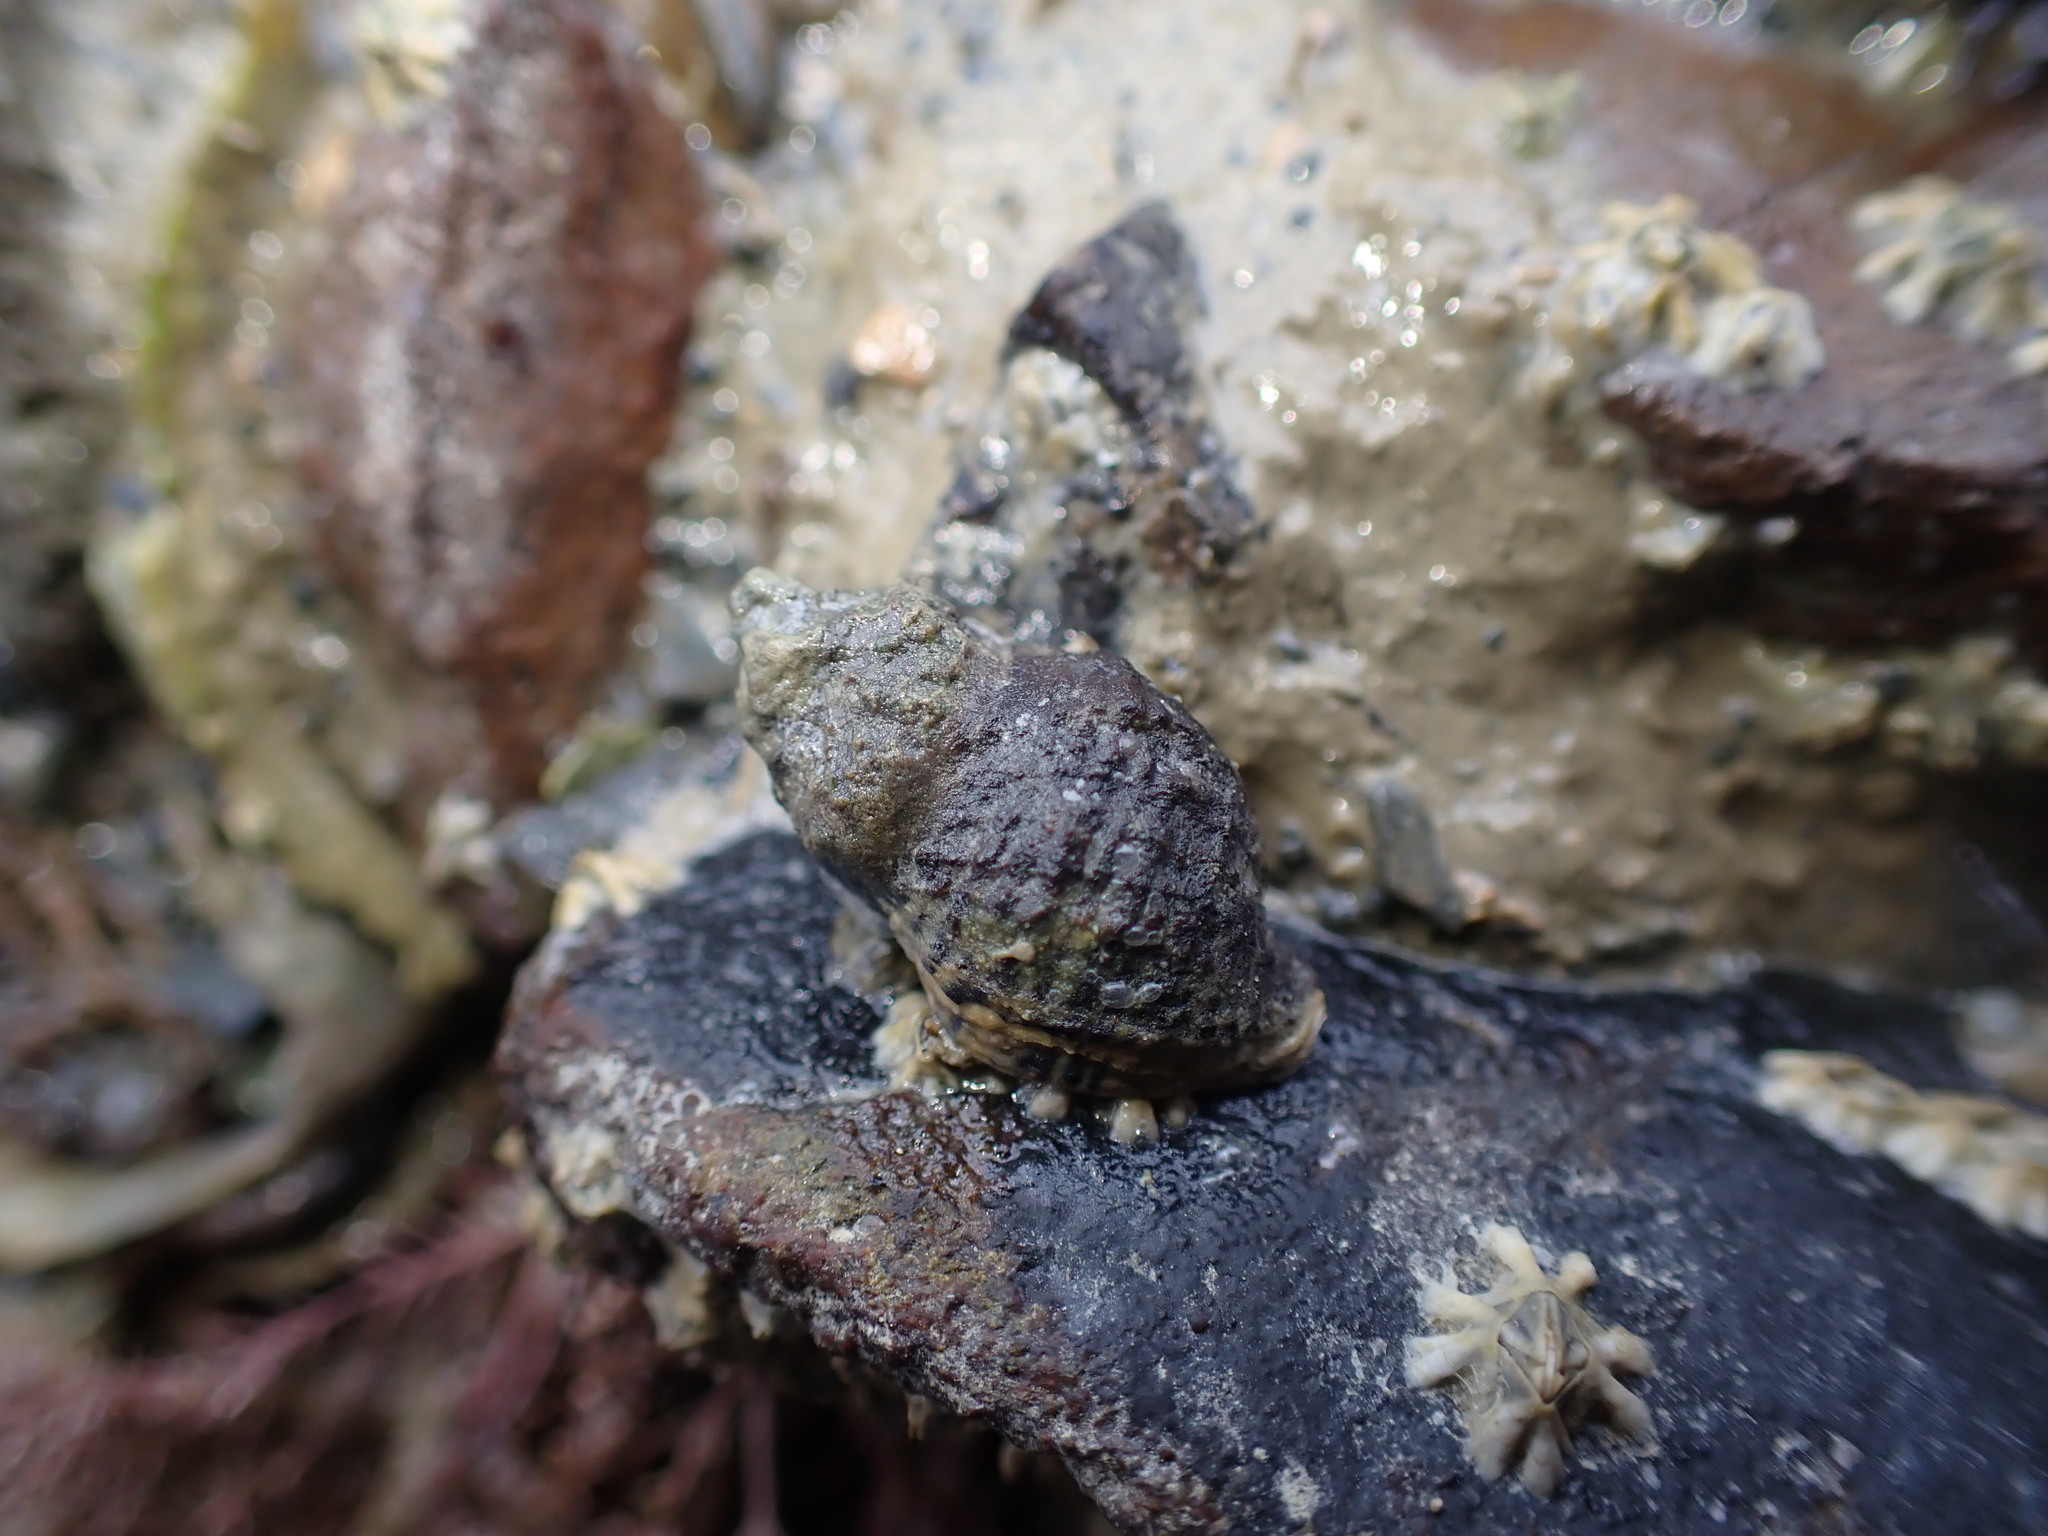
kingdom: Animalia
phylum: Mollusca
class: Gastropoda
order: Neogastropoda
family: Muricidae
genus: Haustrum
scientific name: Haustrum albomarginatum
